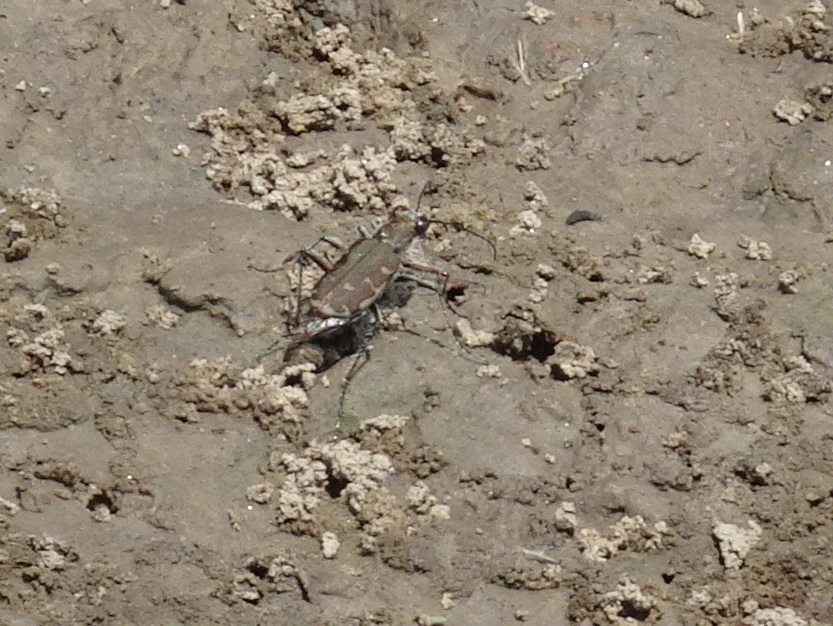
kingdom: Animalia
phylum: Arthropoda
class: Insecta
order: Coleoptera
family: Carabidae
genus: Cicindela
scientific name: Cicindela repanda
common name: Bronzed tiger beetle
